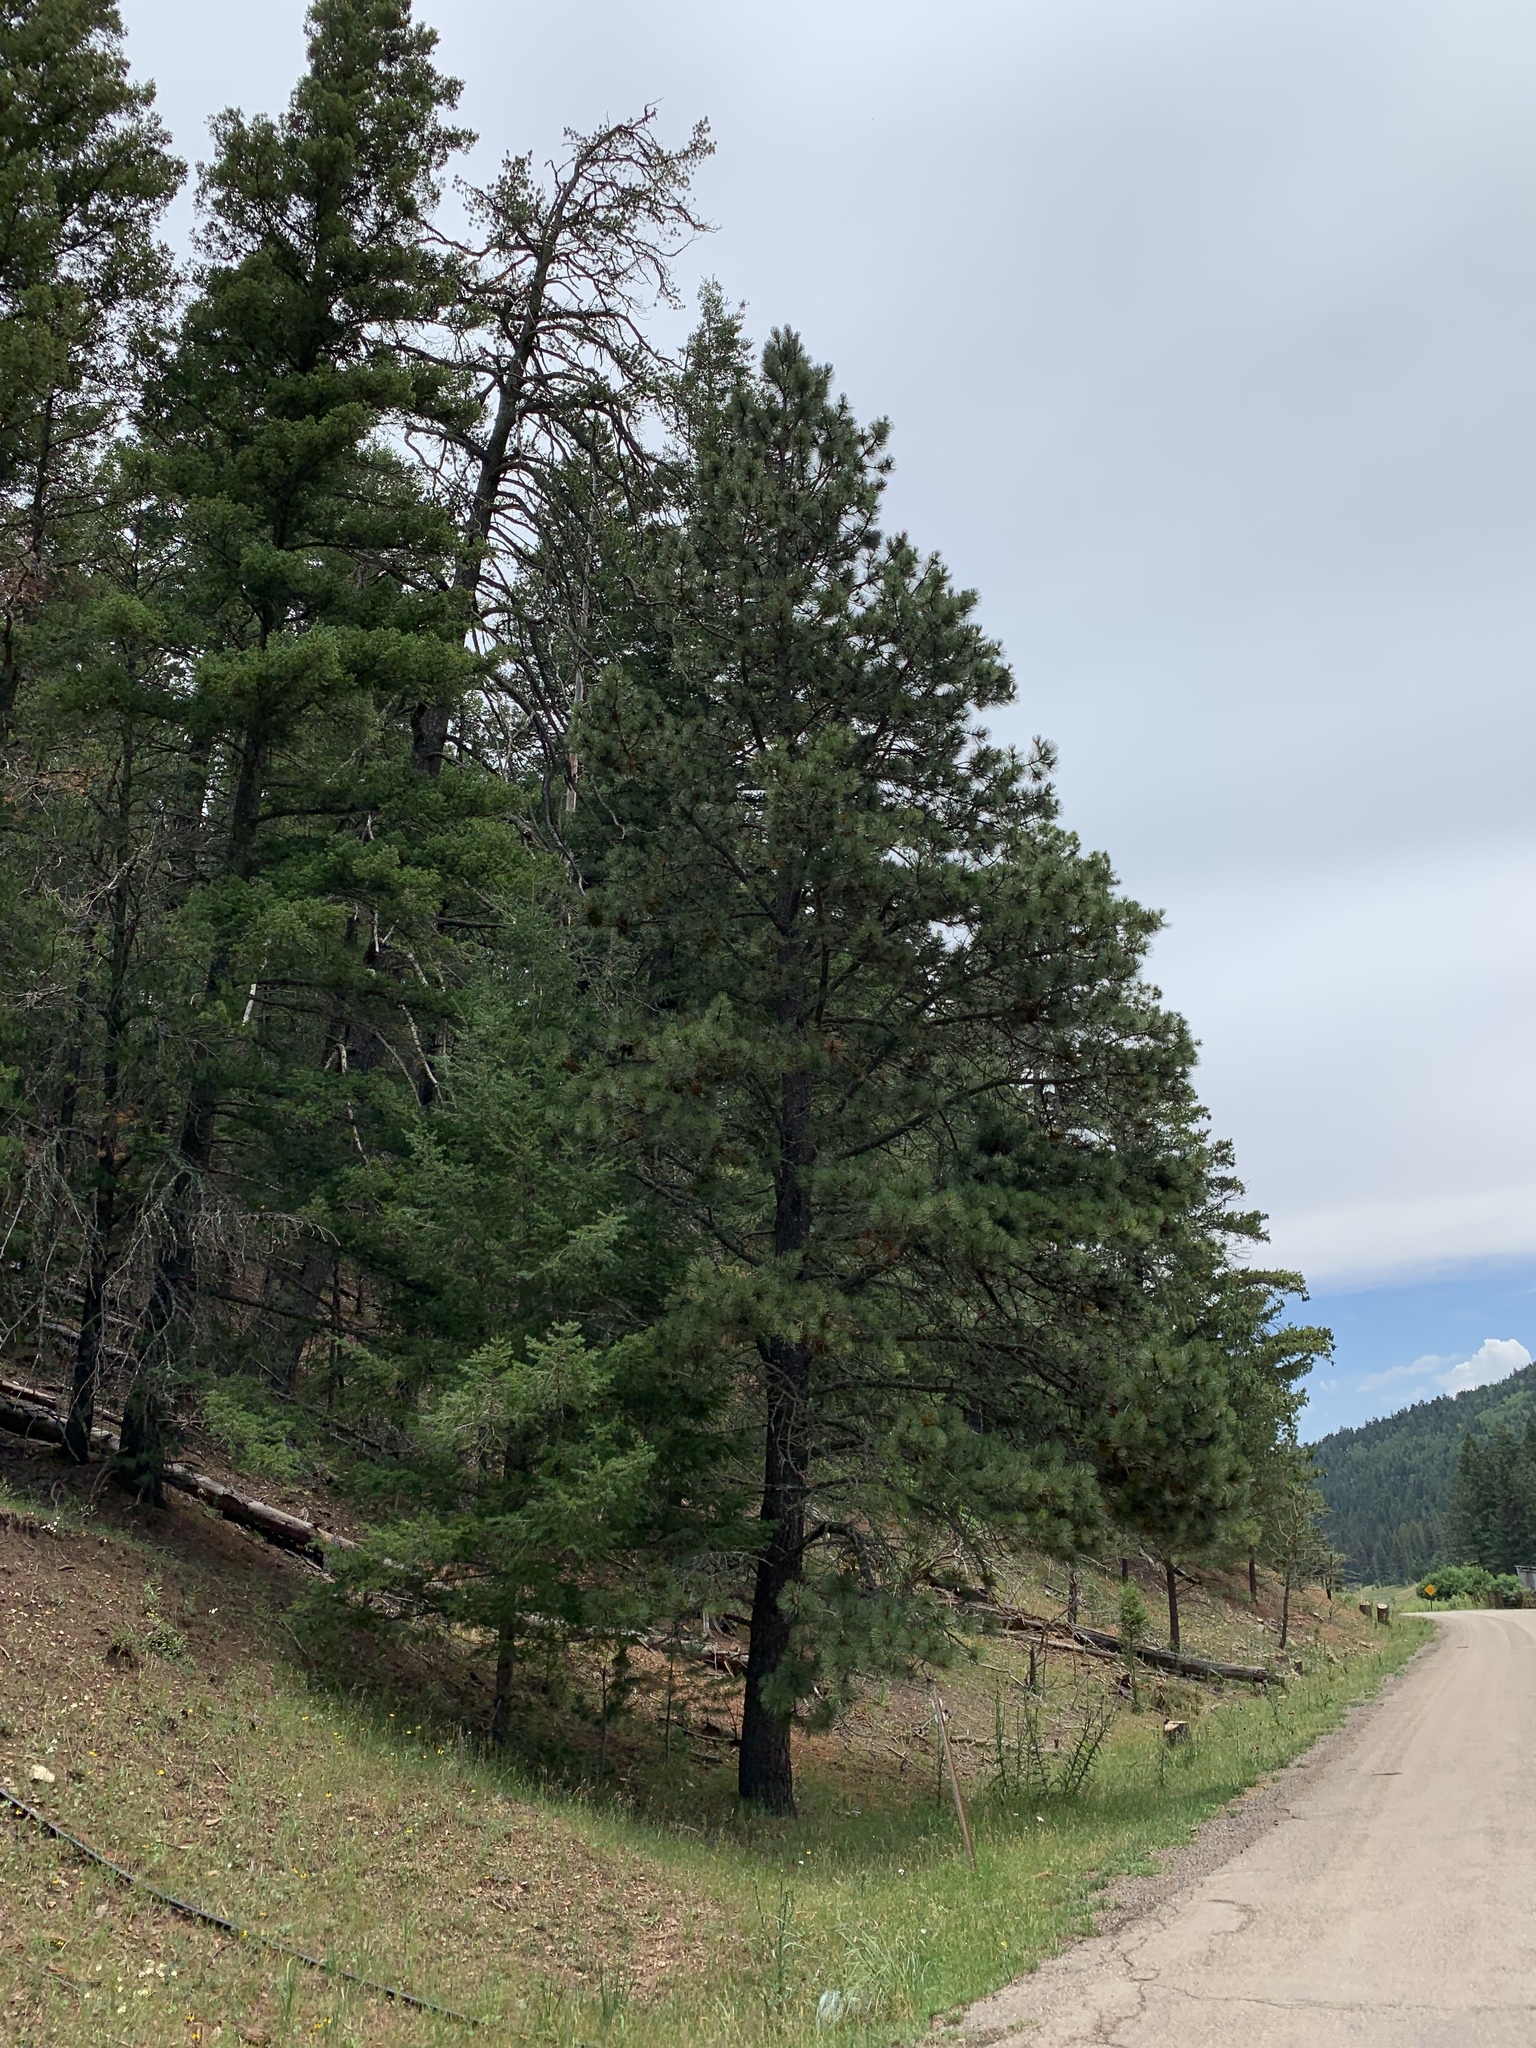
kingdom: Plantae
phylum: Tracheophyta
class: Pinopsida
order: Pinales
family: Pinaceae
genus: Pinus
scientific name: Pinus ponderosa
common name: Western yellow-pine
